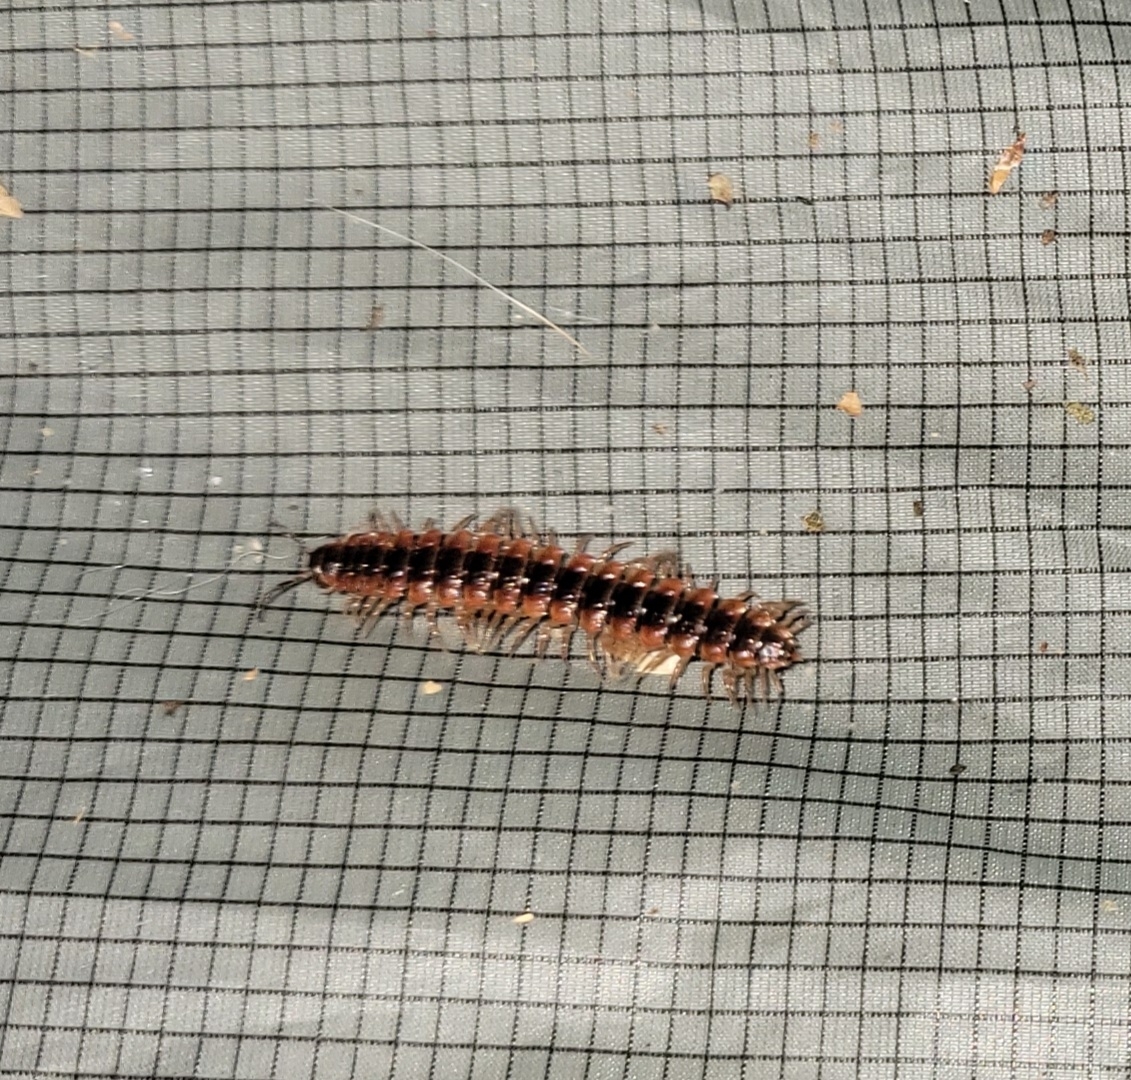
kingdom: Animalia
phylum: Arthropoda
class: Diplopoda
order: Polydesmida
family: Polydesmidae
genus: Pseudopolydesmus
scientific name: Pseudopolydesmus canadensis
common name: Canadian flat-back millipede
